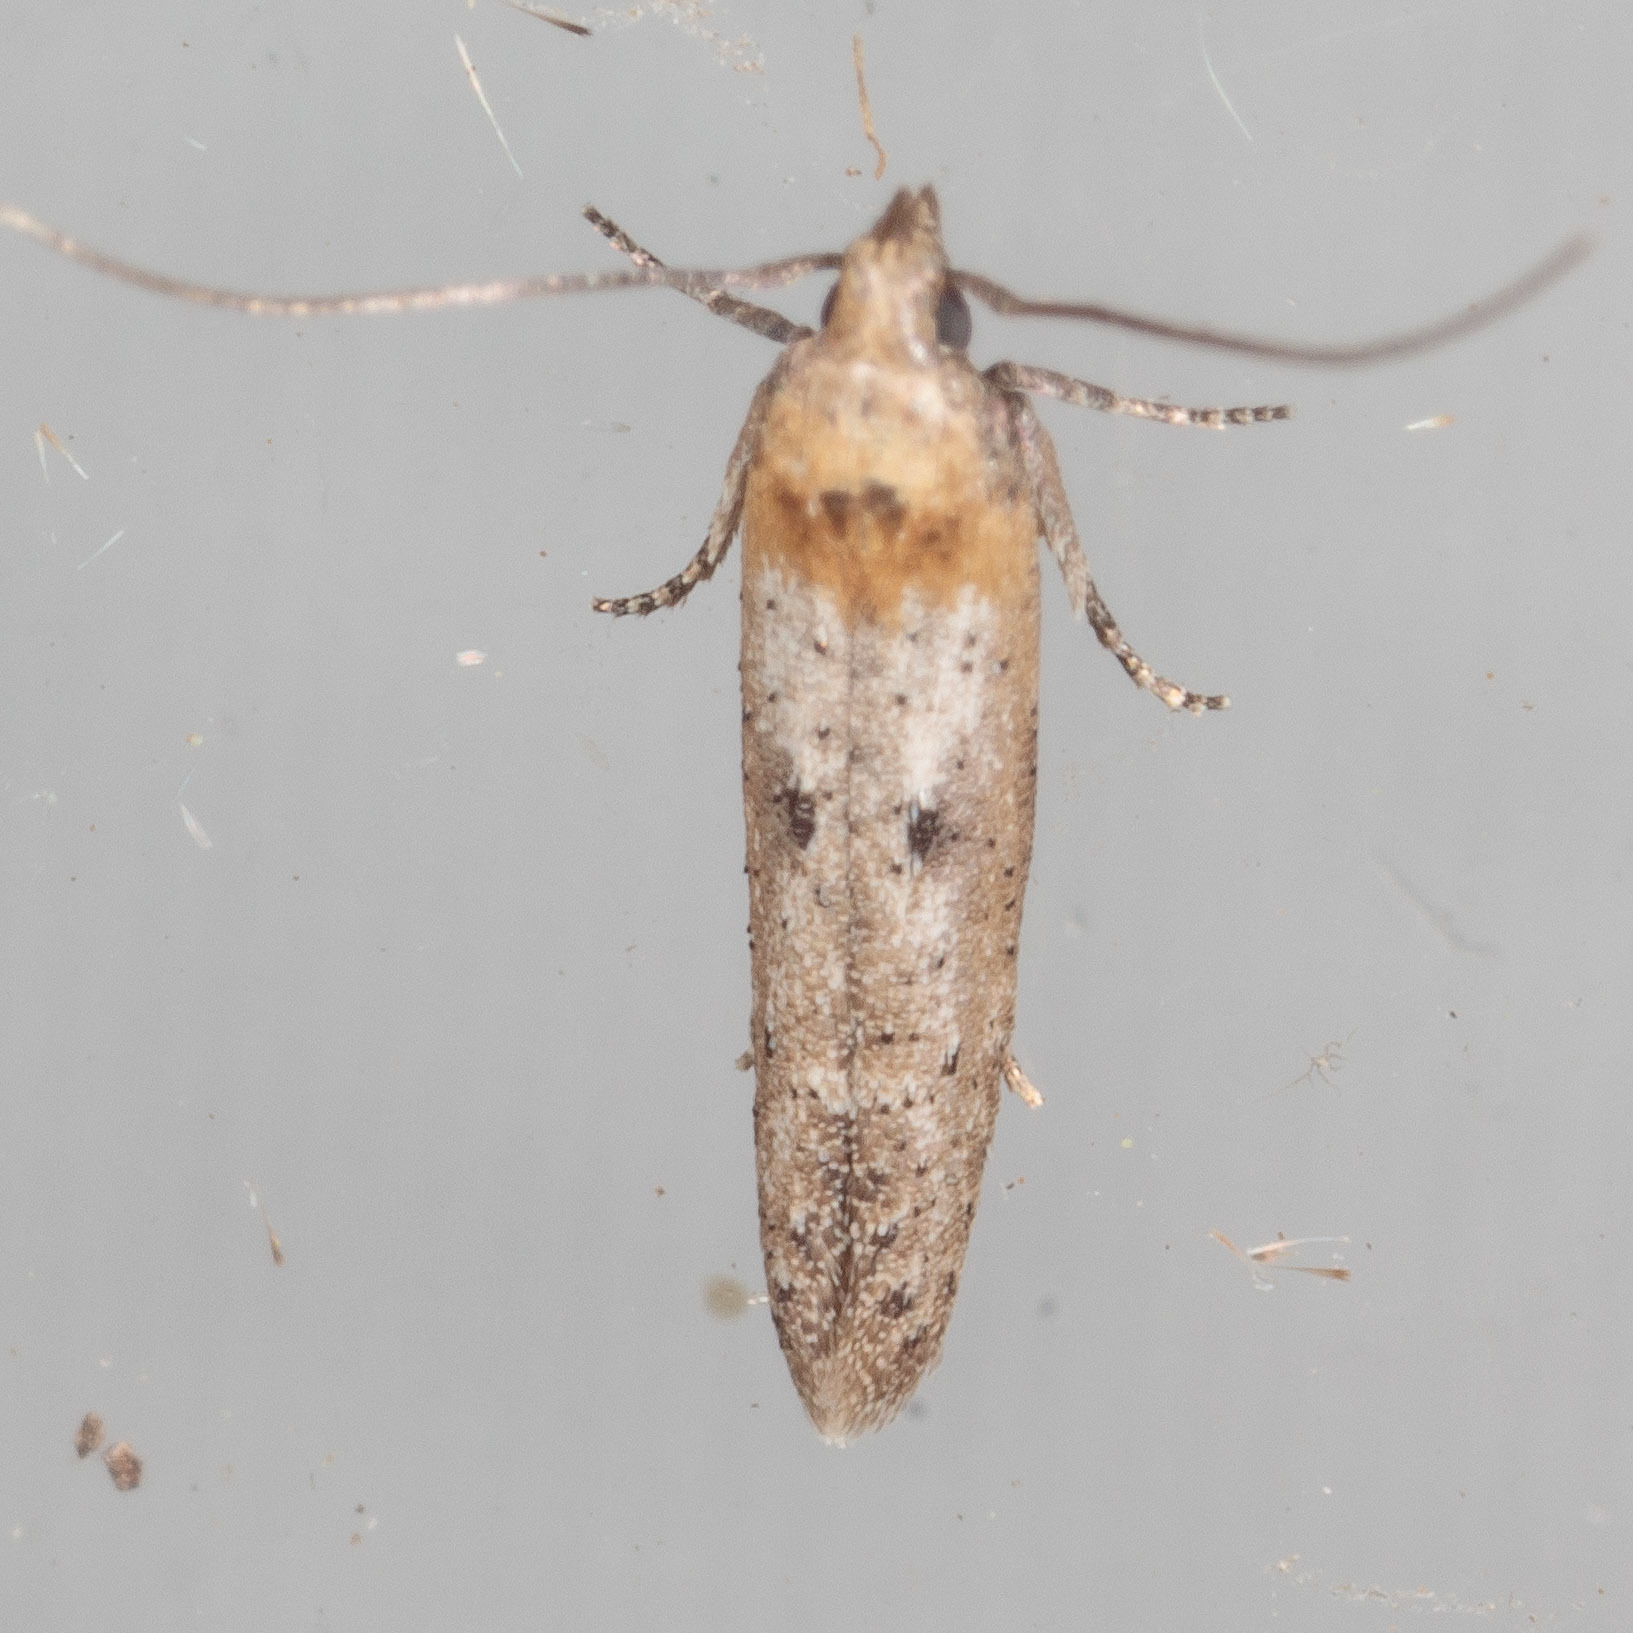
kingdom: Animalia
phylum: Arthropoda
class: Insecta
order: Lepidoptera
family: Cosmopterigidae
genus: Obithome
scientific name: Obithome punctiferella
